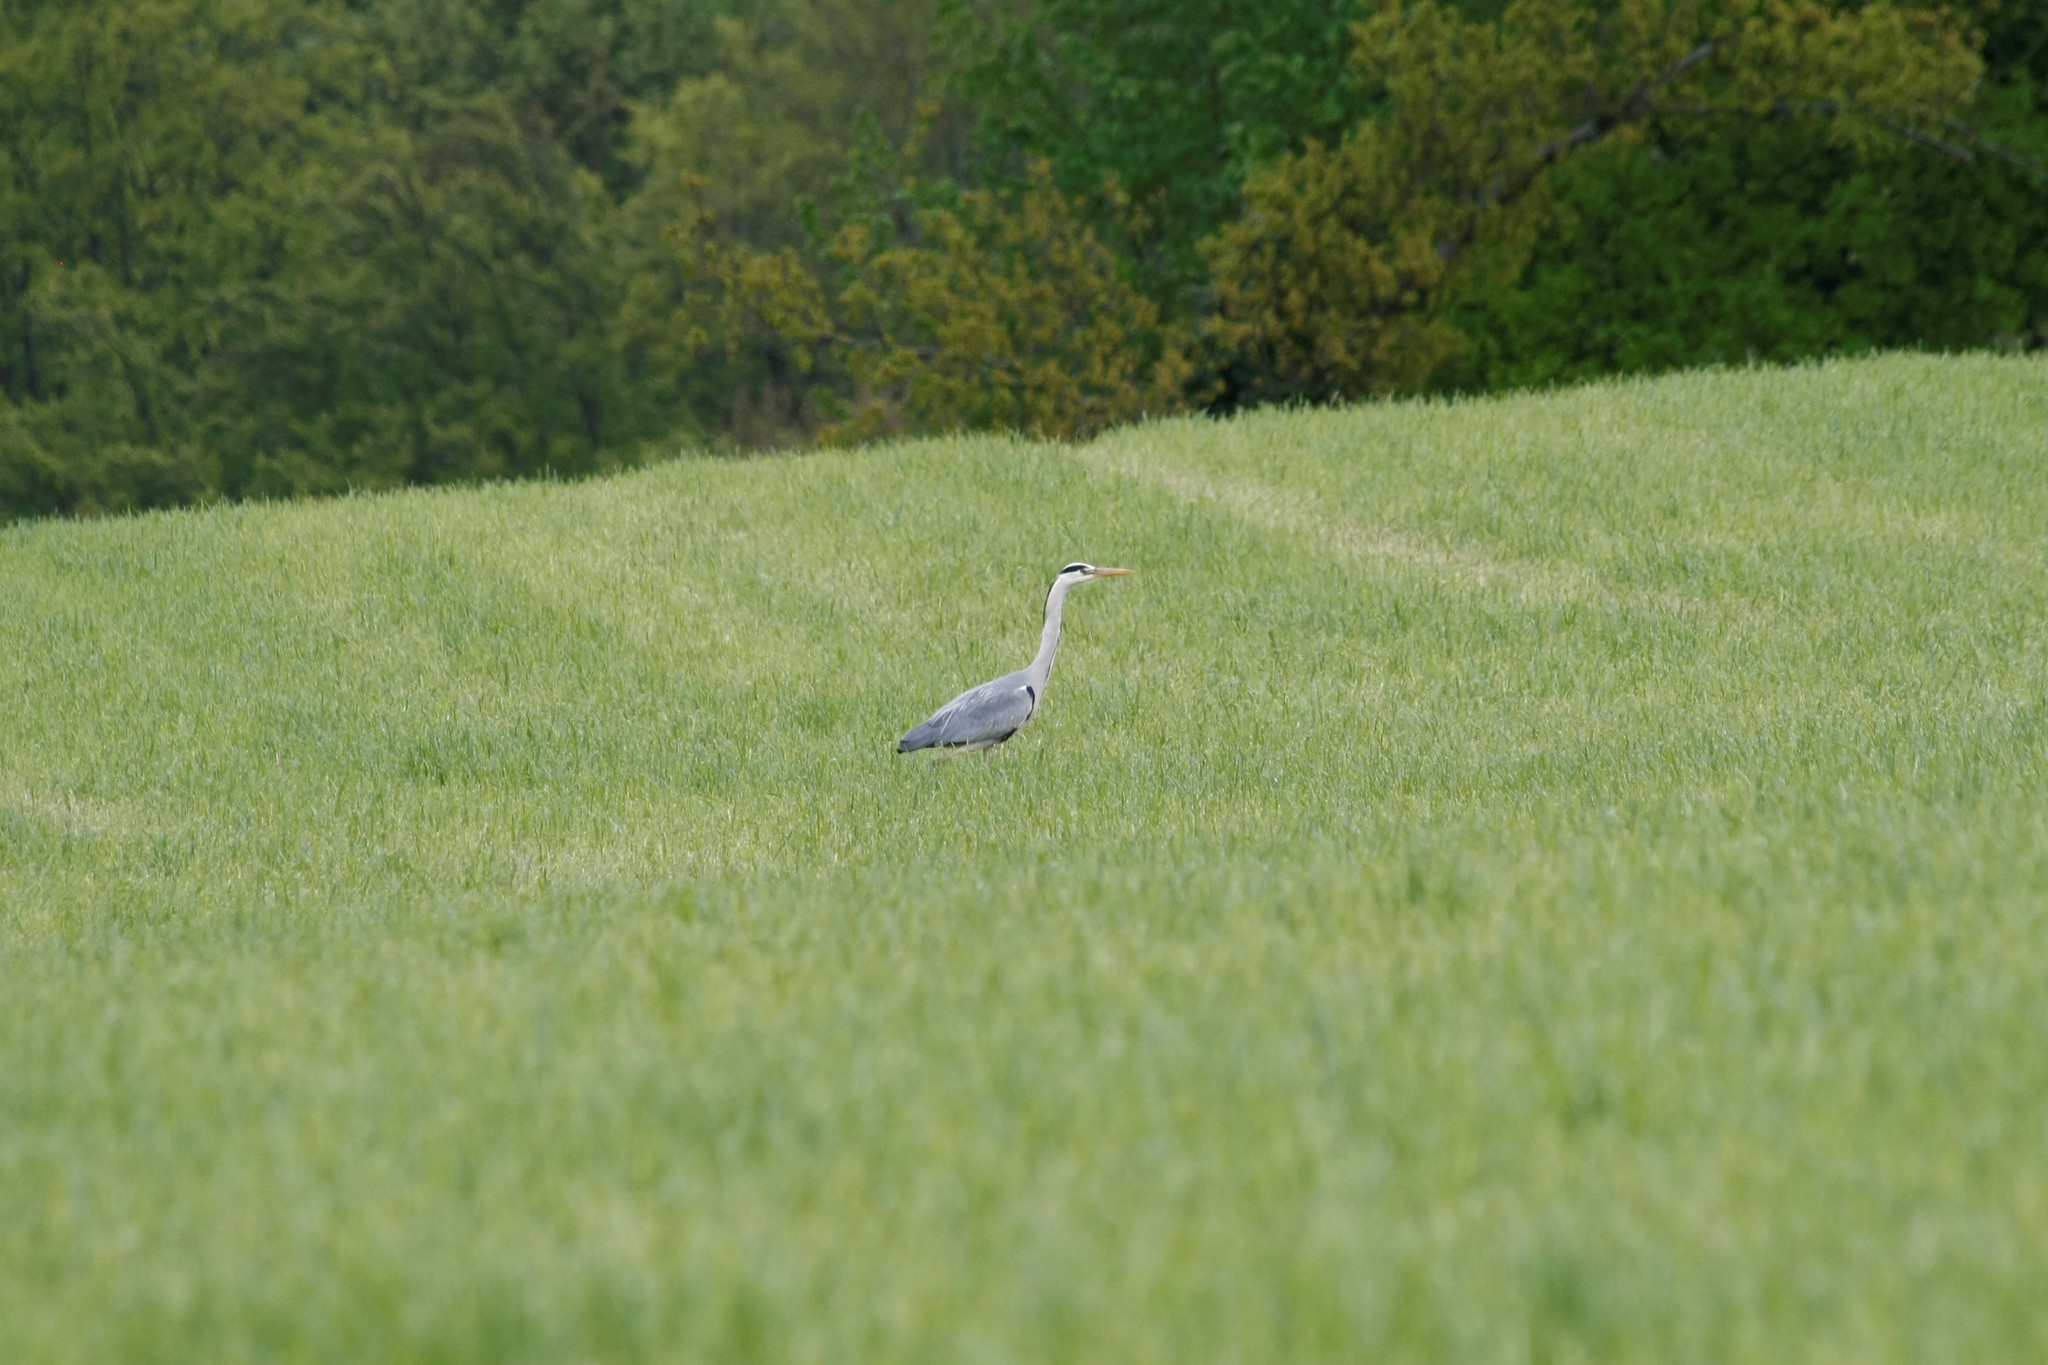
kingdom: Animalia
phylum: Chordata
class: Aves
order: Pelecaniformes
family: Ardeidae
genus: Ardea
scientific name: Ardea cinerea
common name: Grey heron
